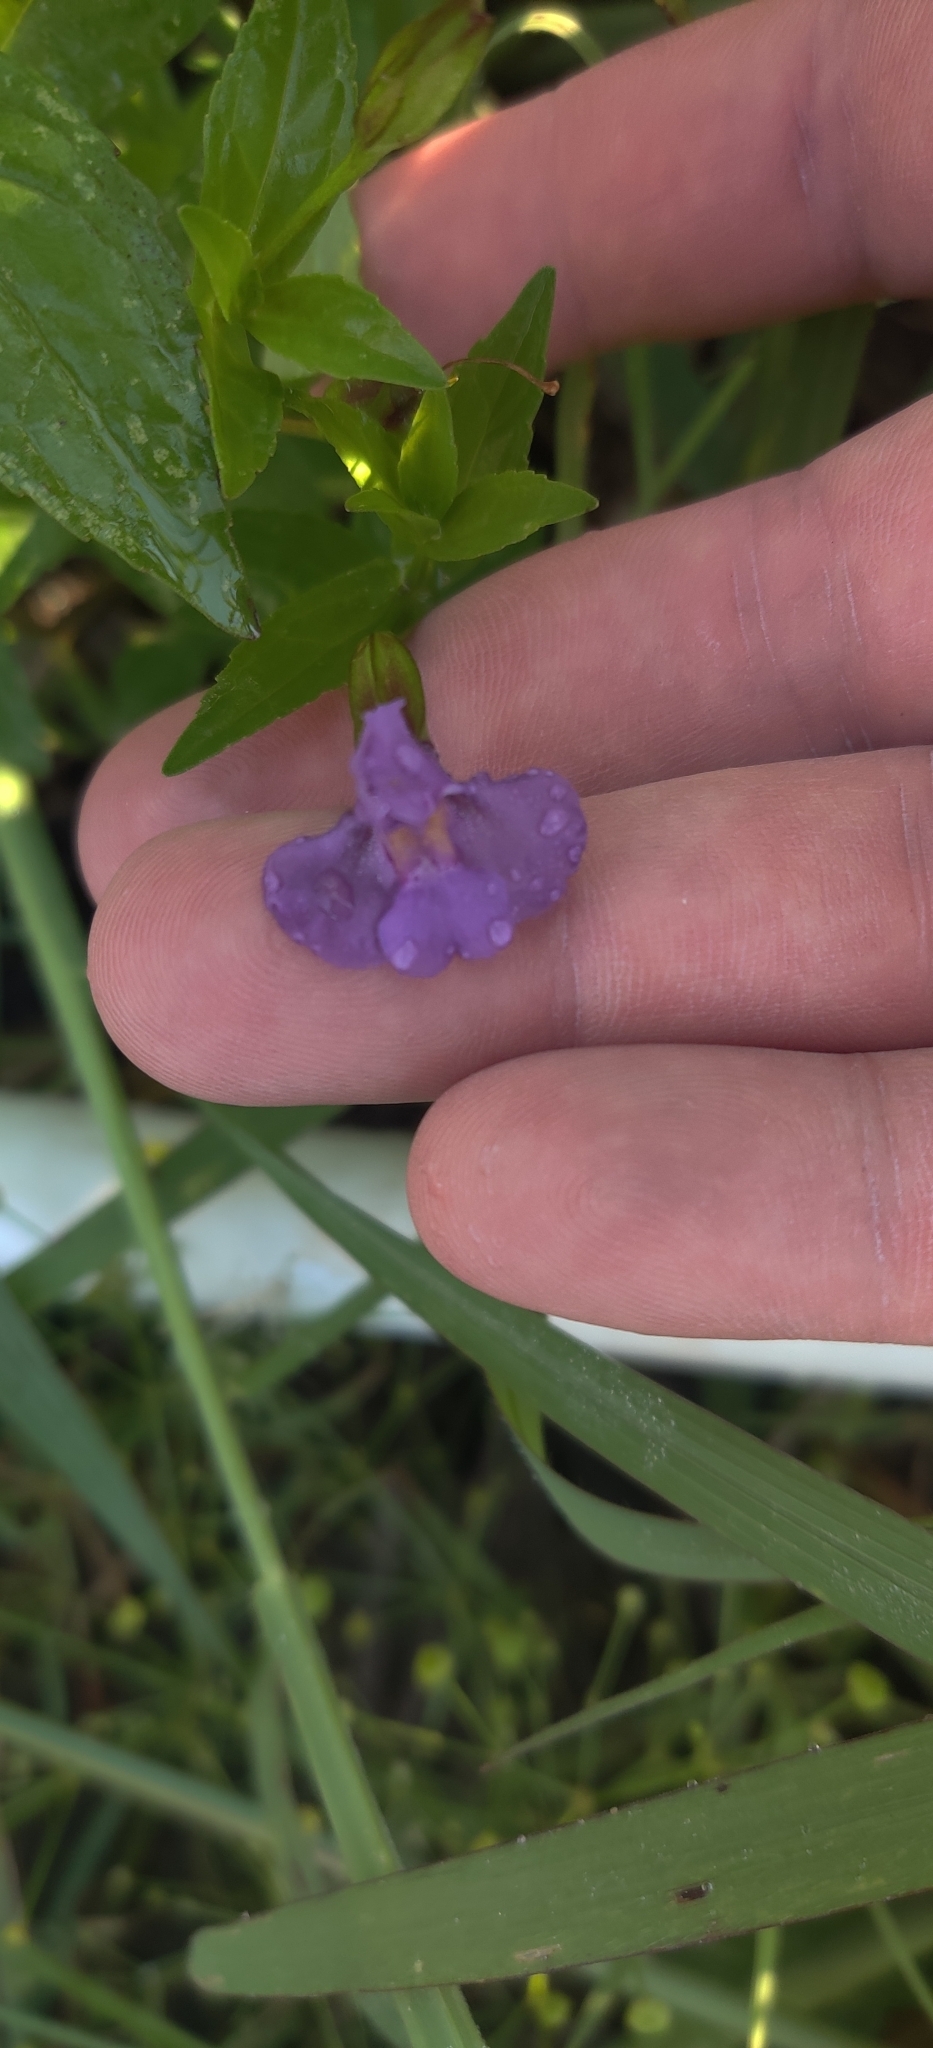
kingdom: Plantae
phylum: Tracheophyta
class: Magnoliopsida
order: Lamiales
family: Phrymaceae
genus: Mimulus
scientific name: Mimulus ringens
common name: Allegheny monkeyflower
